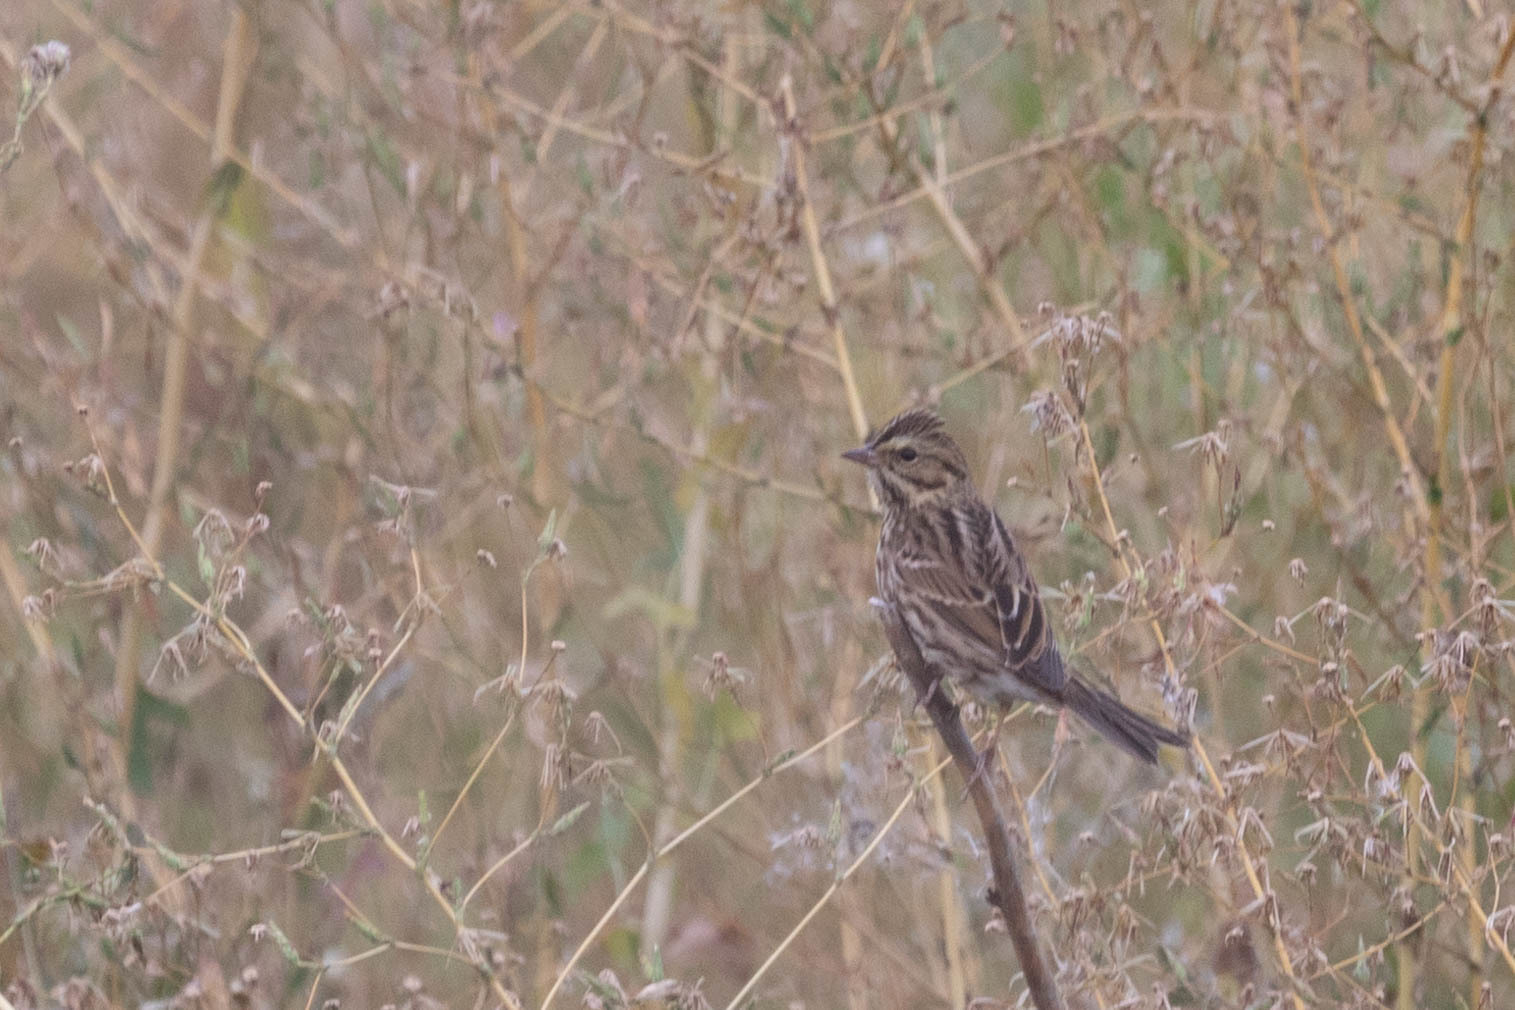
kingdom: Animalia
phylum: Chordata
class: Aves
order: Passeriformes
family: Passerellidae
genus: Passerculus
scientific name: Passerculus sandwichensis
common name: Savannah sparrow
